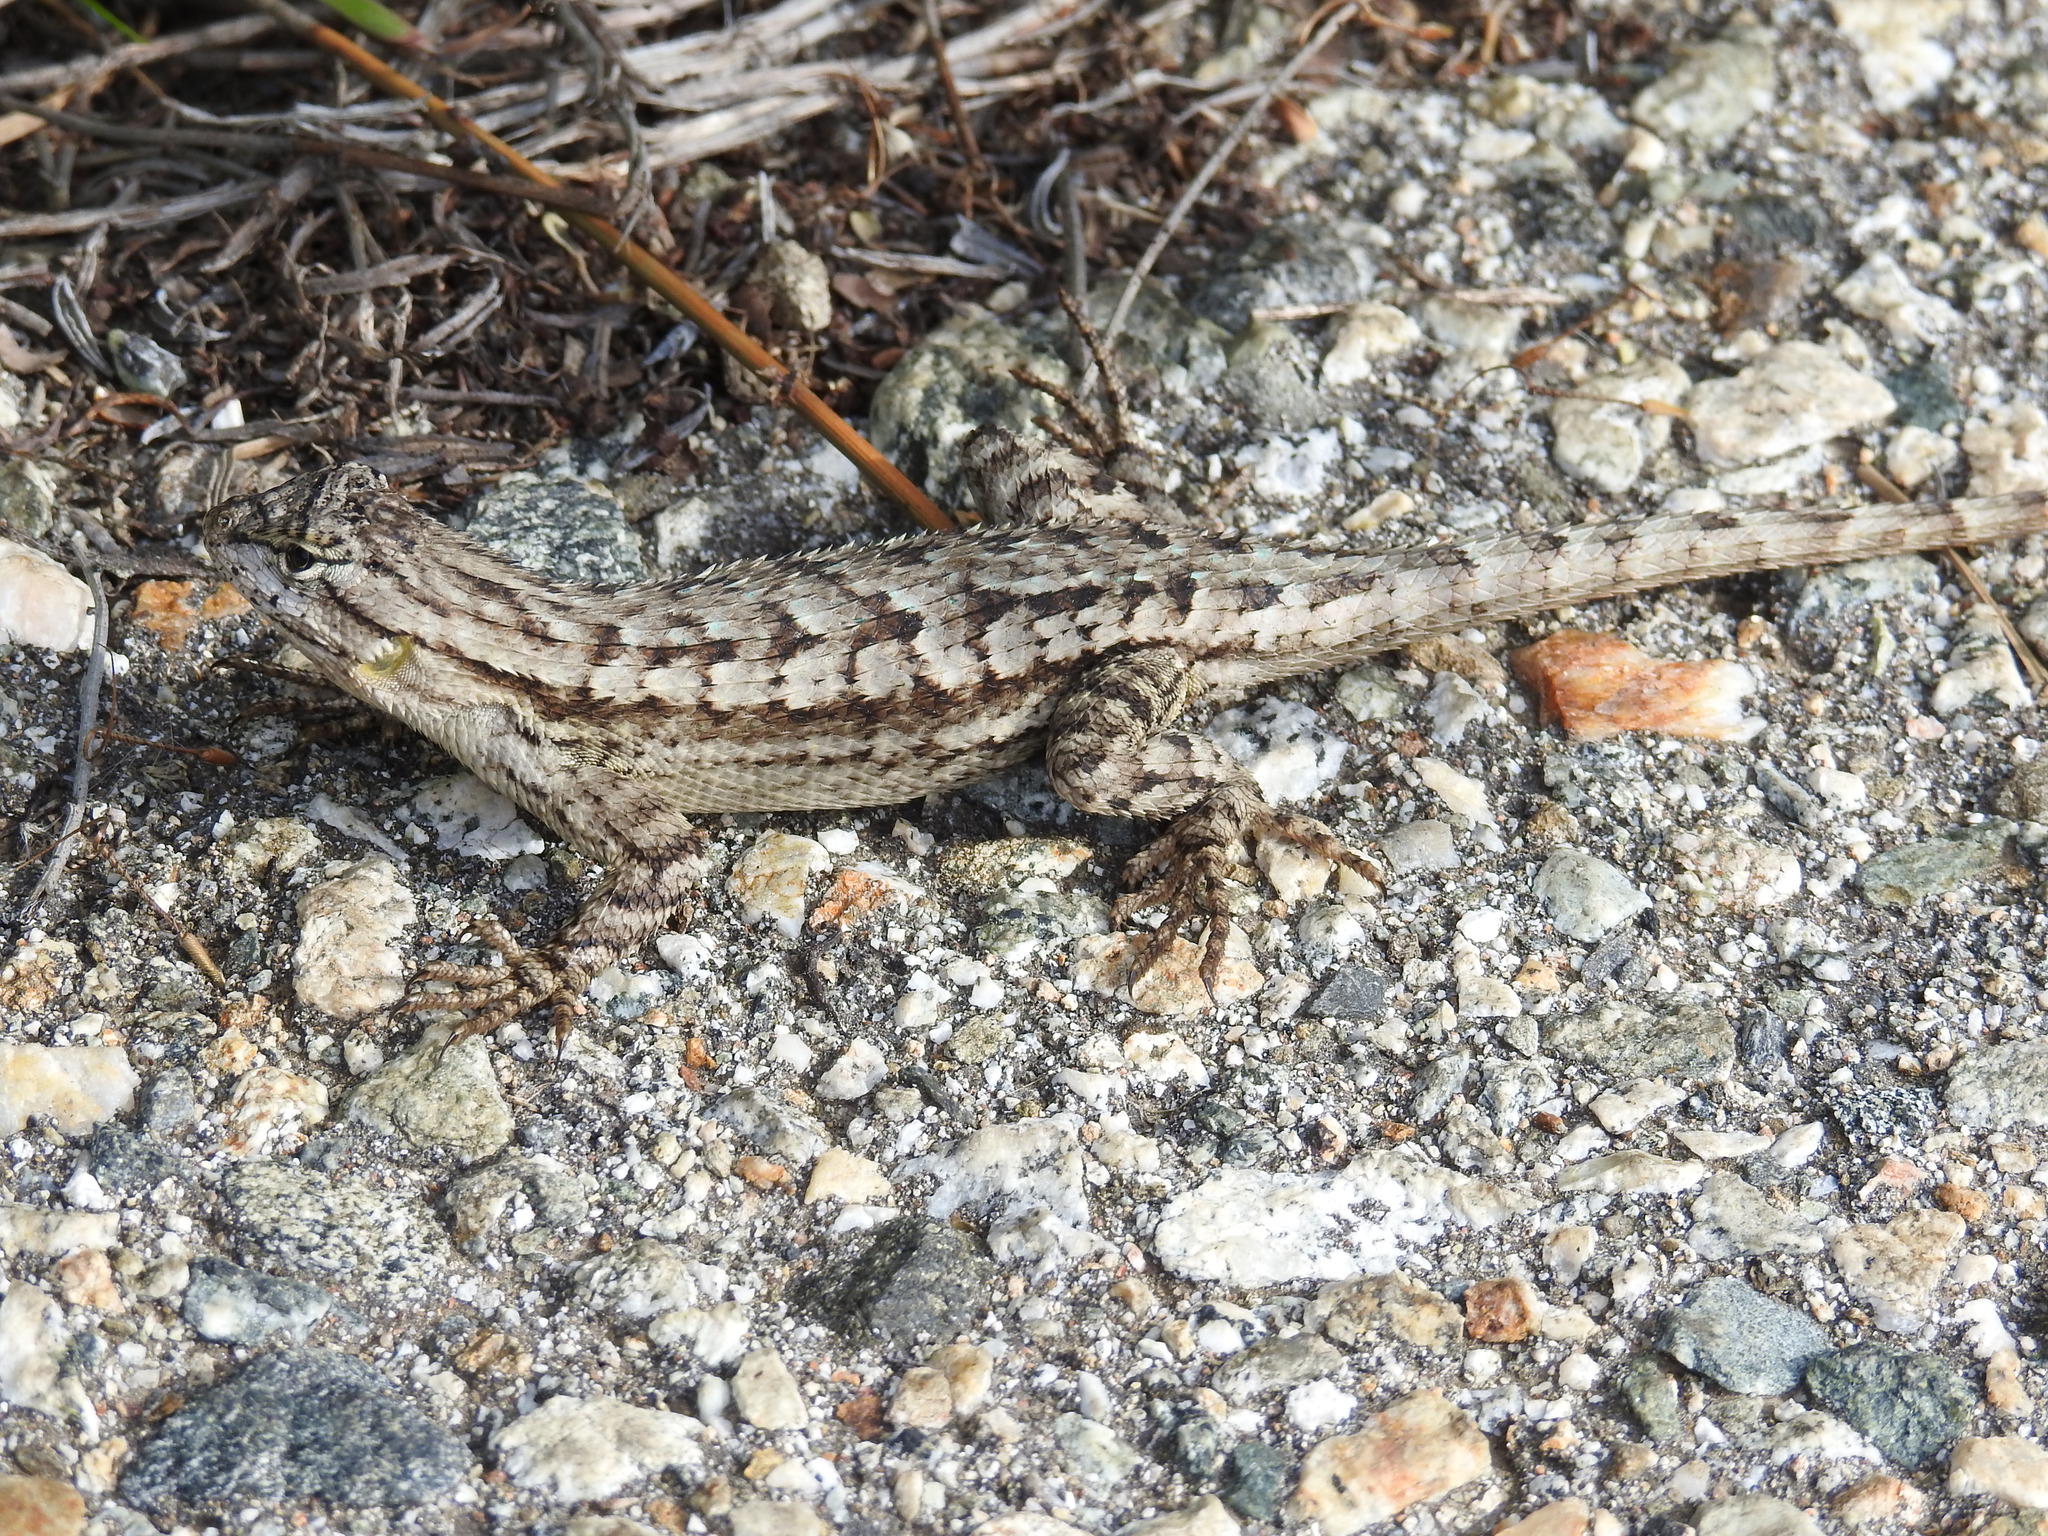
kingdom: Animalia
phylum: Chordata
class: Squamata
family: Phrynosomatidae
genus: Sceloporus
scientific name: Sceloporus occidentalis
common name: Western fence lizard
